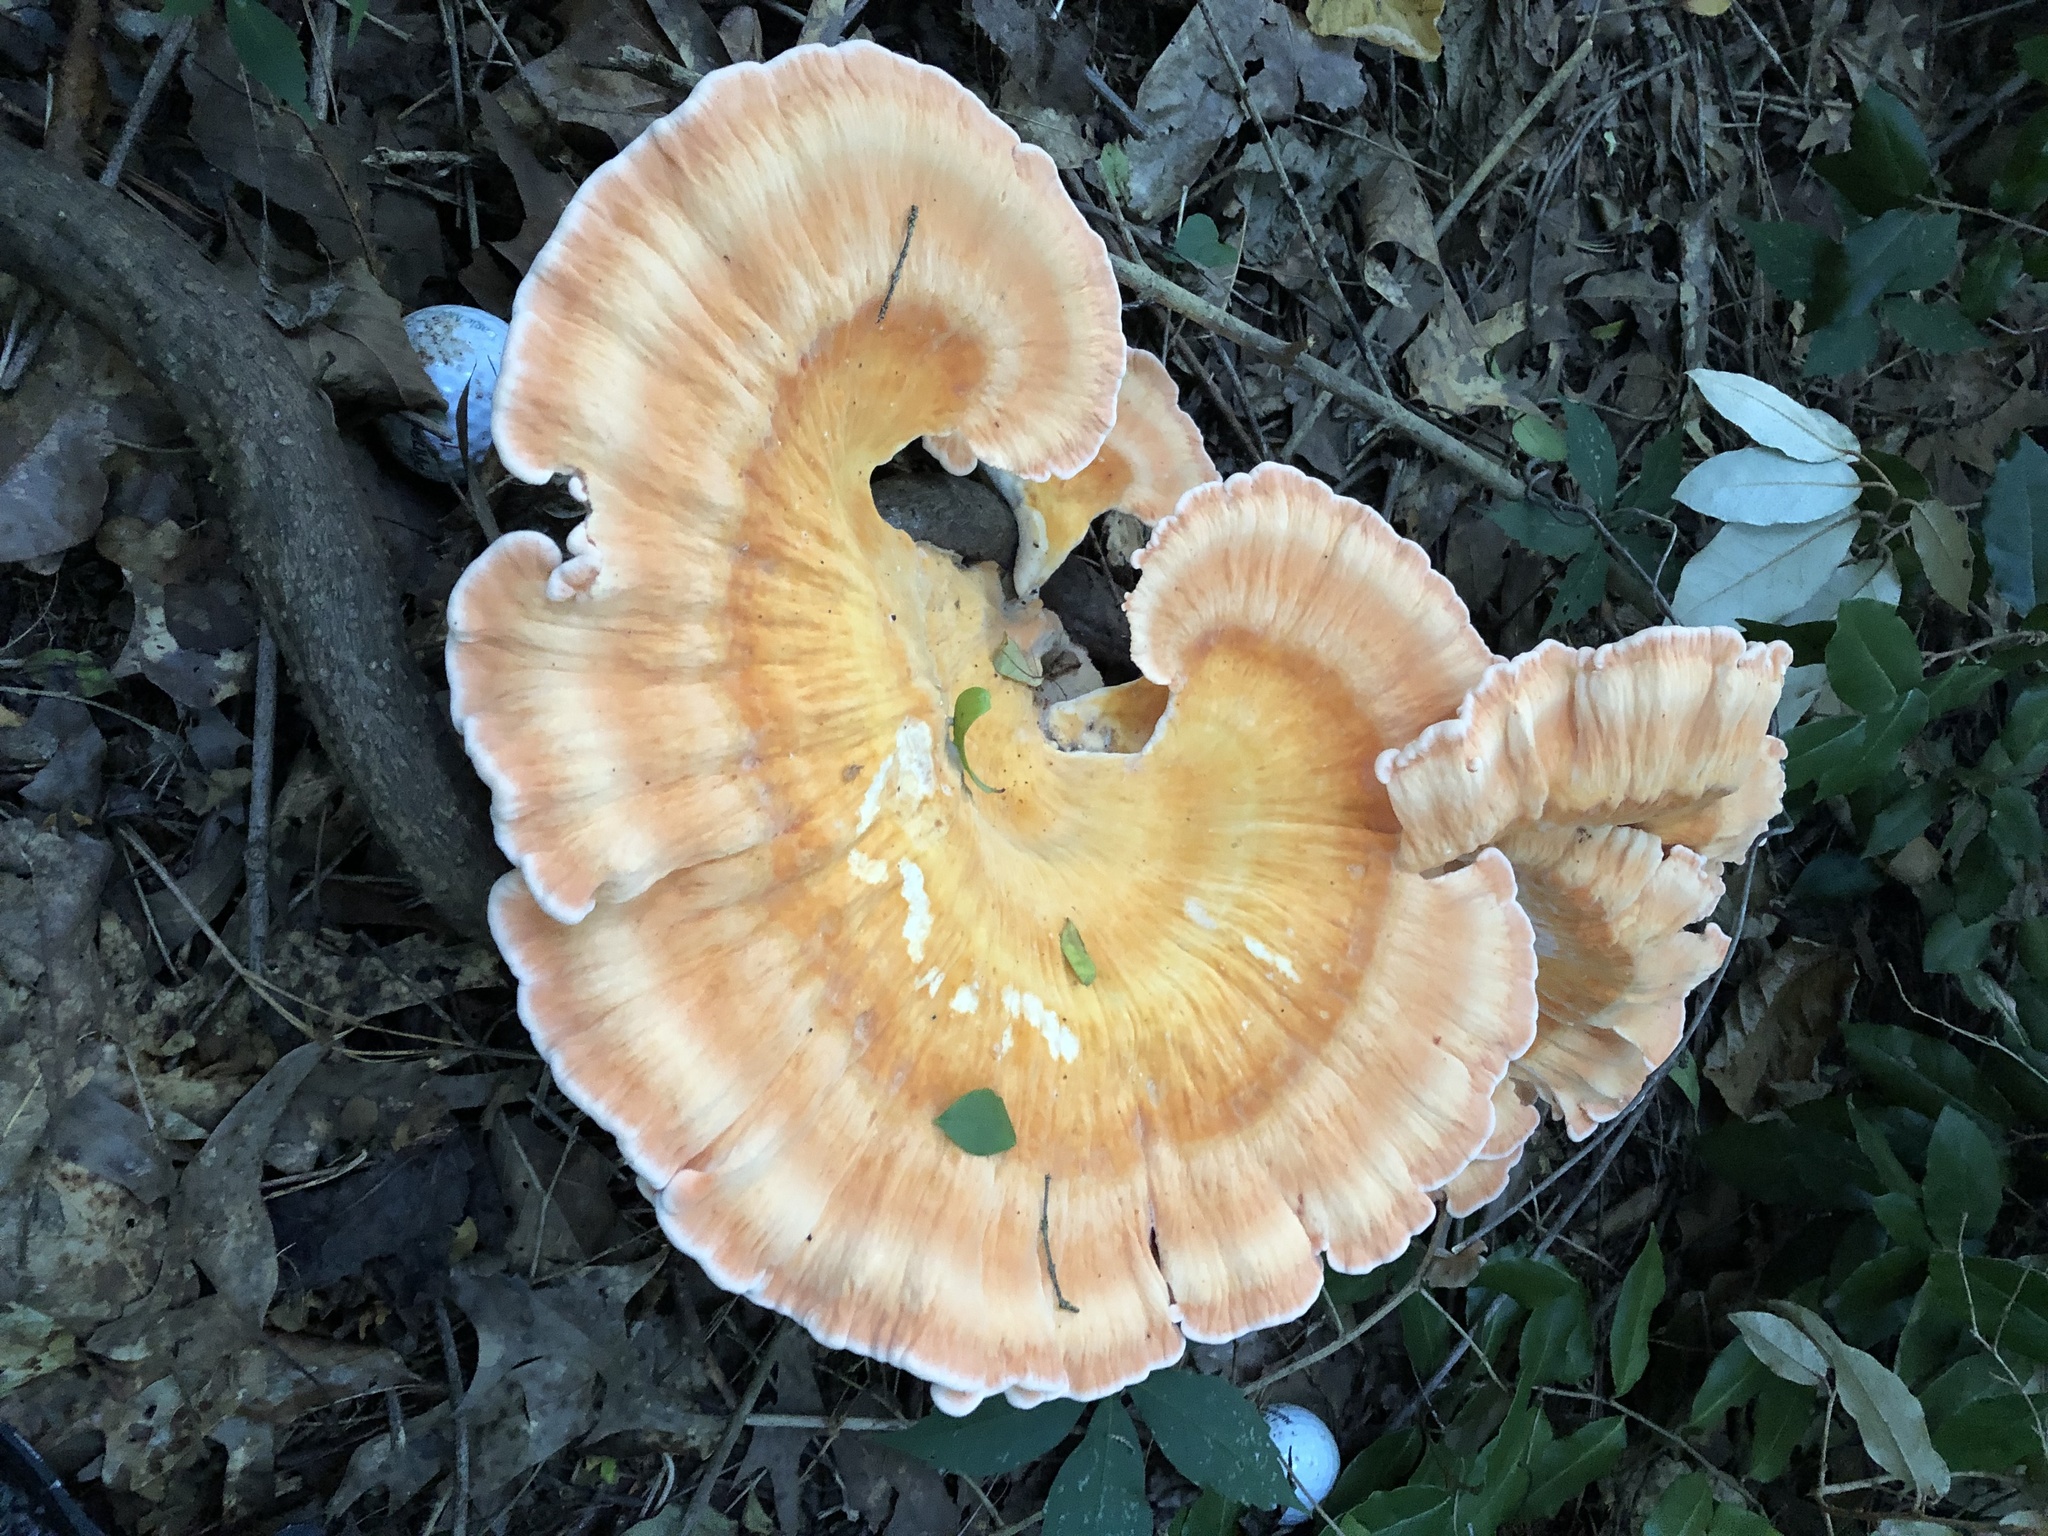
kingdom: Fungi
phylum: Basidiomycota
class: Agaricomycetes
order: Polyporales
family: Laetiporaceae
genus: Laetiporus
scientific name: Laetiporus sulphureus
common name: Chicken of the woods
